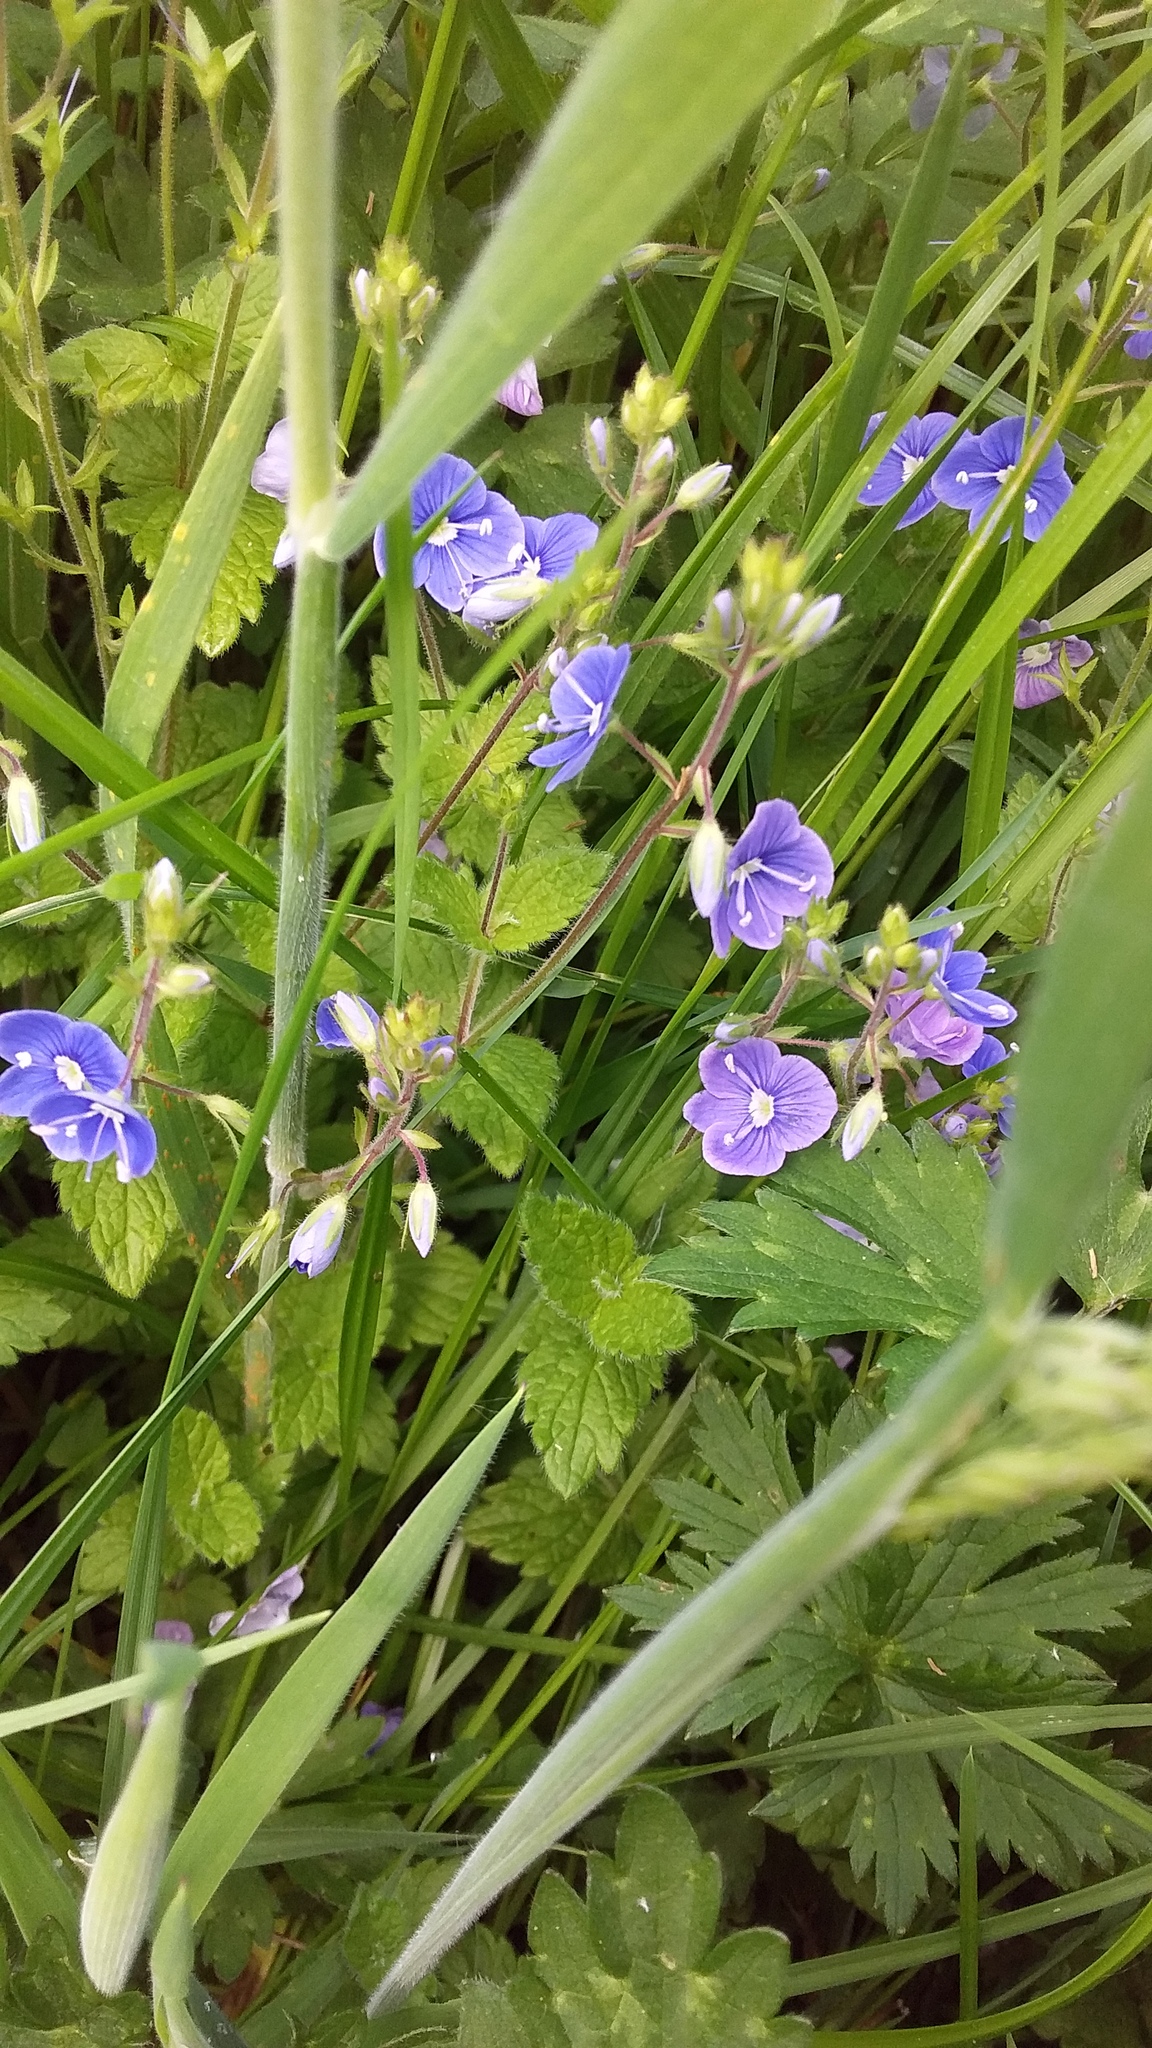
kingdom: Plantae
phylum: Tracheophyta
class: Magnoliopsida
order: Lamiales
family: Plantaginaceae
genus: Veronica
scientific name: Veronica chamaedrys
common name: Germander speedwell
